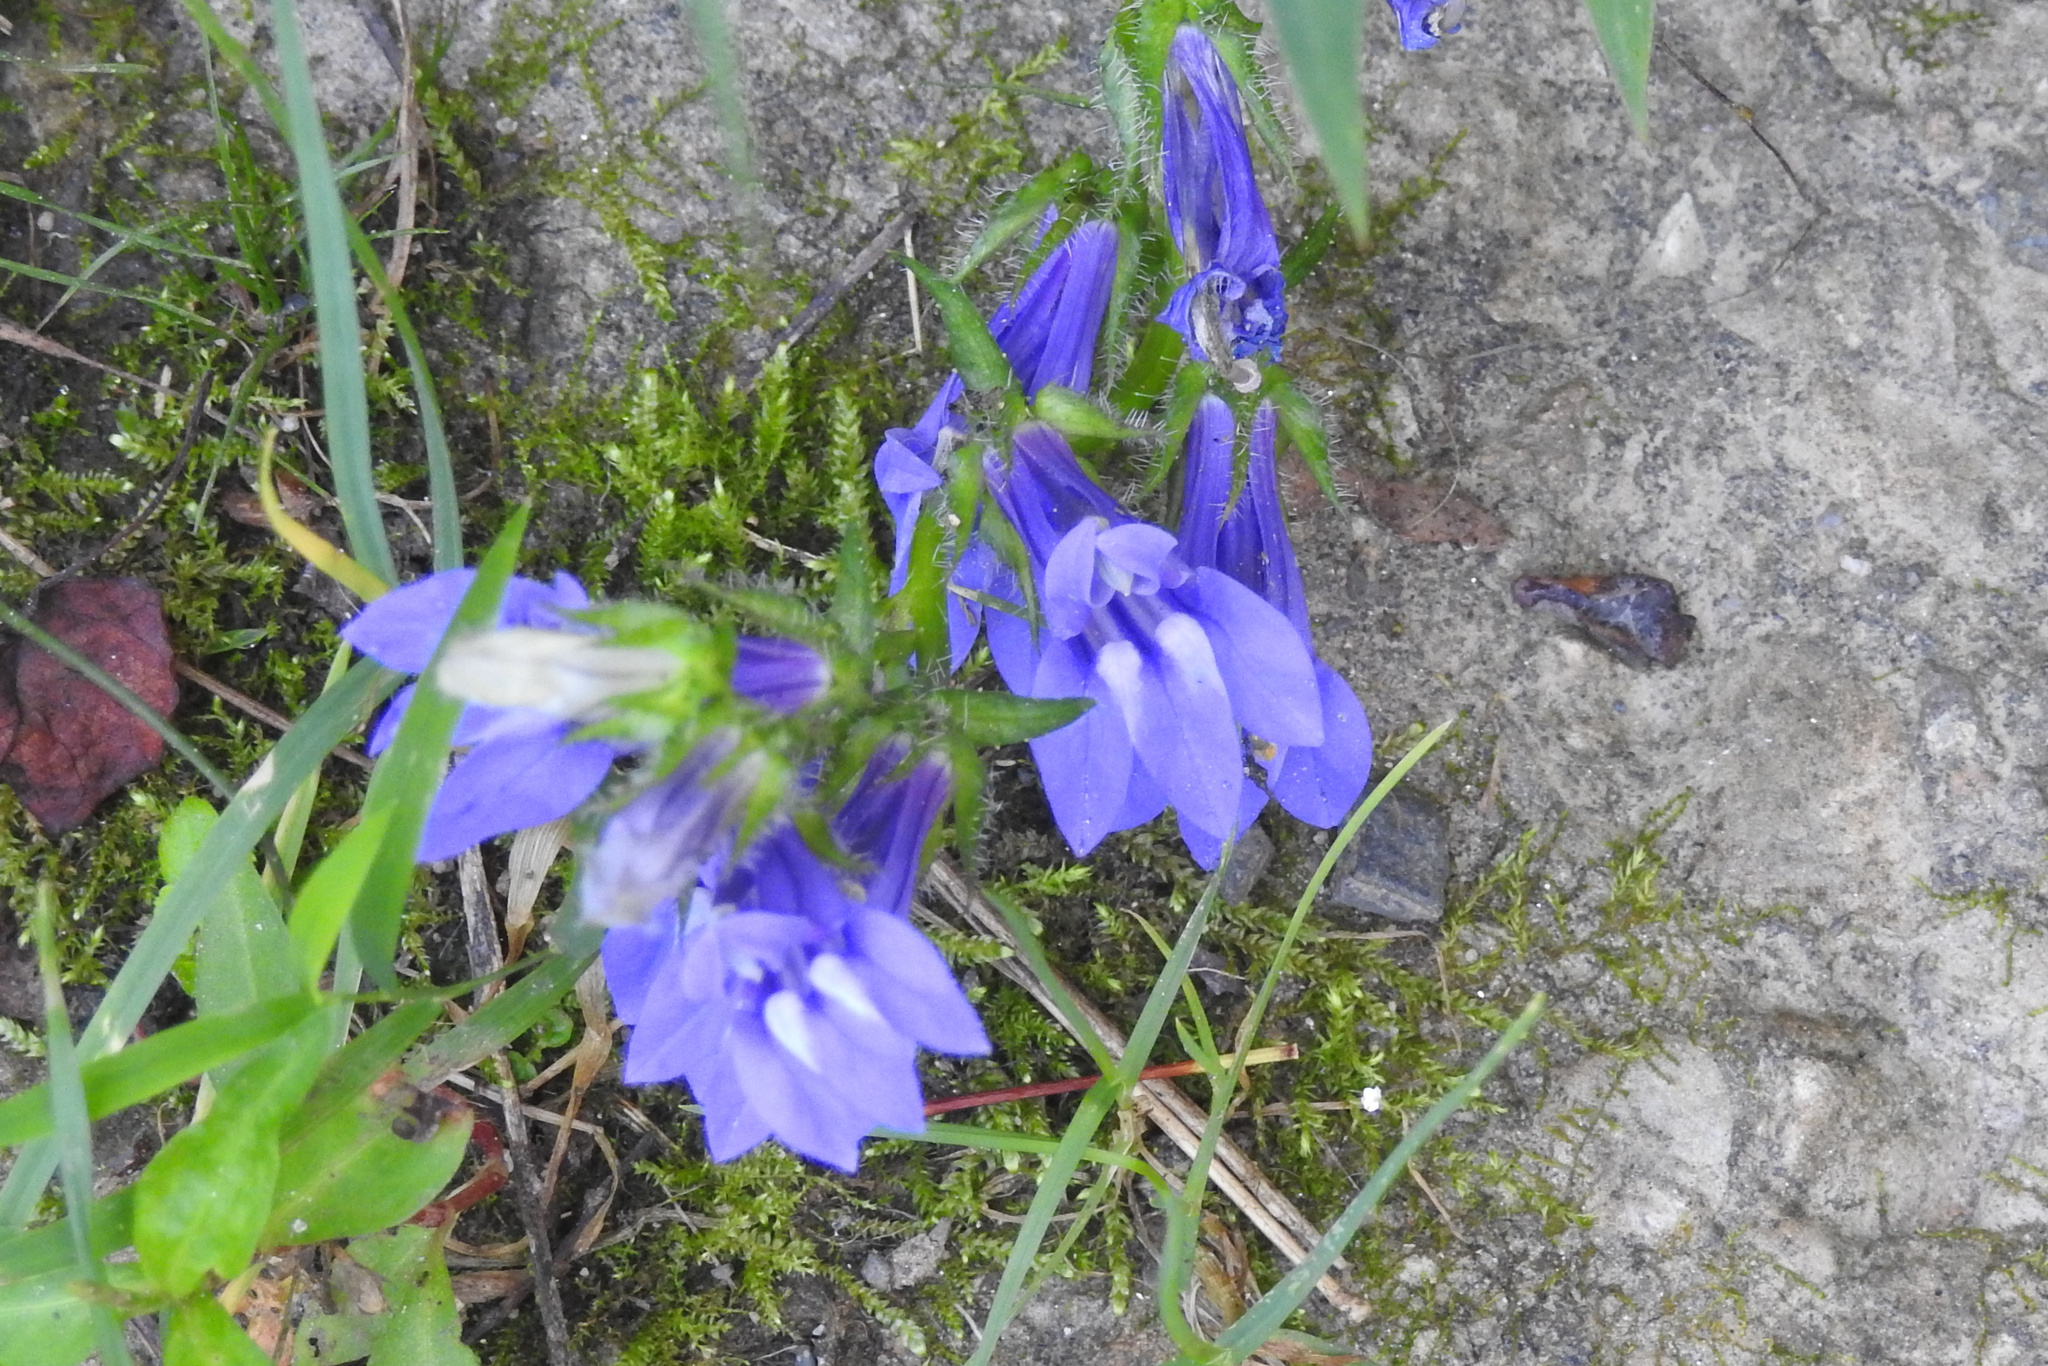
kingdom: Plantae
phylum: Tracheophyta
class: Magnoliopsida
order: Asterales
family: Campanulaceae
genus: Lobelia
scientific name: Lobelia siphilitica
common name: Great lobelia
